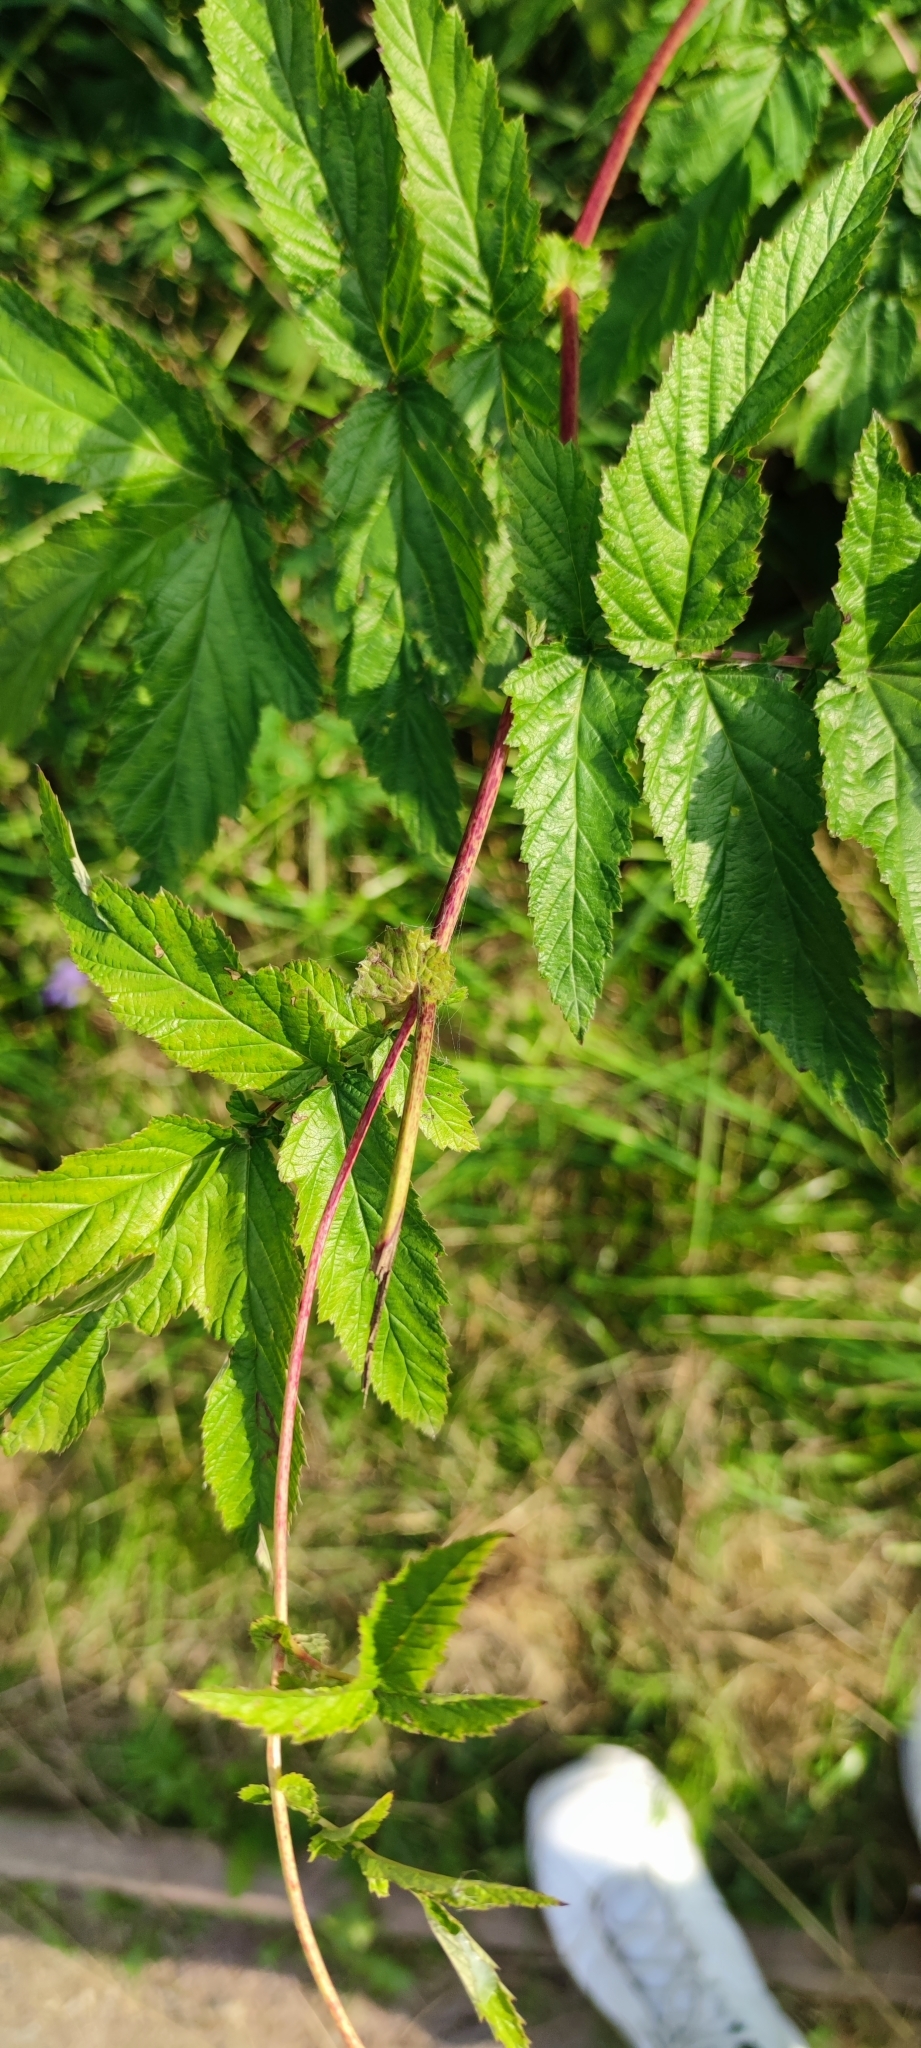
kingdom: Plantae
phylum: Tracheophyta
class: Magnoliopsida
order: Rosales
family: Rosaceae
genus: Filipendula
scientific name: Filipendula ulmaria
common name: Meadowsweet
